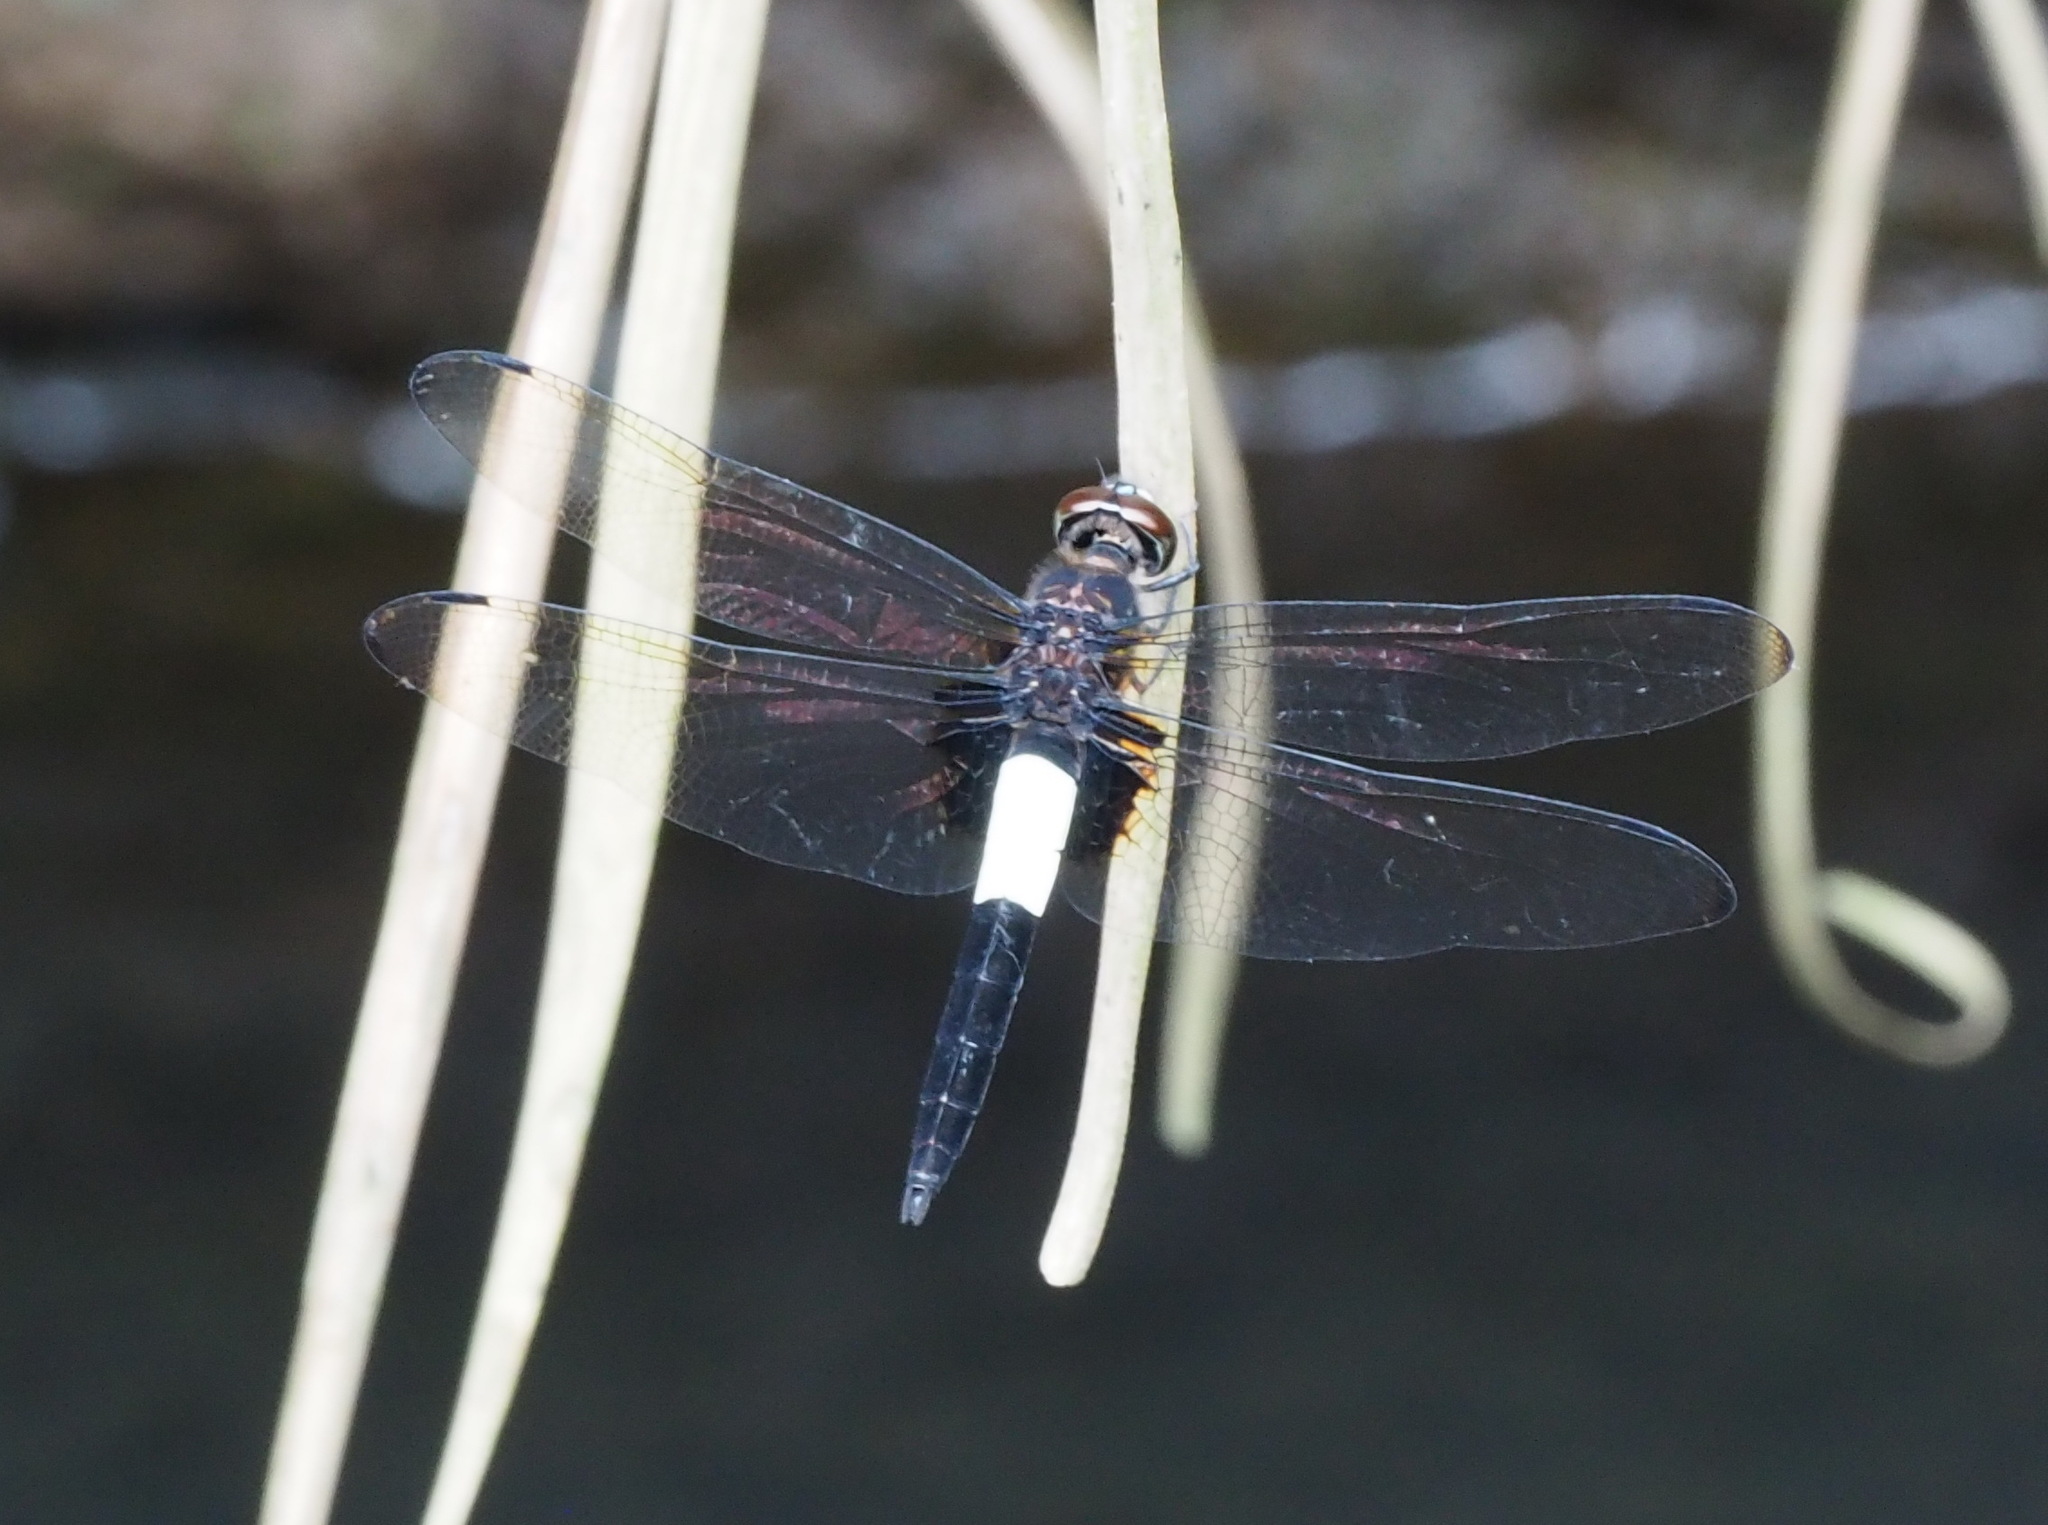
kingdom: Animalia
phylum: Arthropoda
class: Insecta
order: Odonata
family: Libellulidae
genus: Pseudothemis
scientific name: Pseudothemis zonata
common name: Pied skimmer
